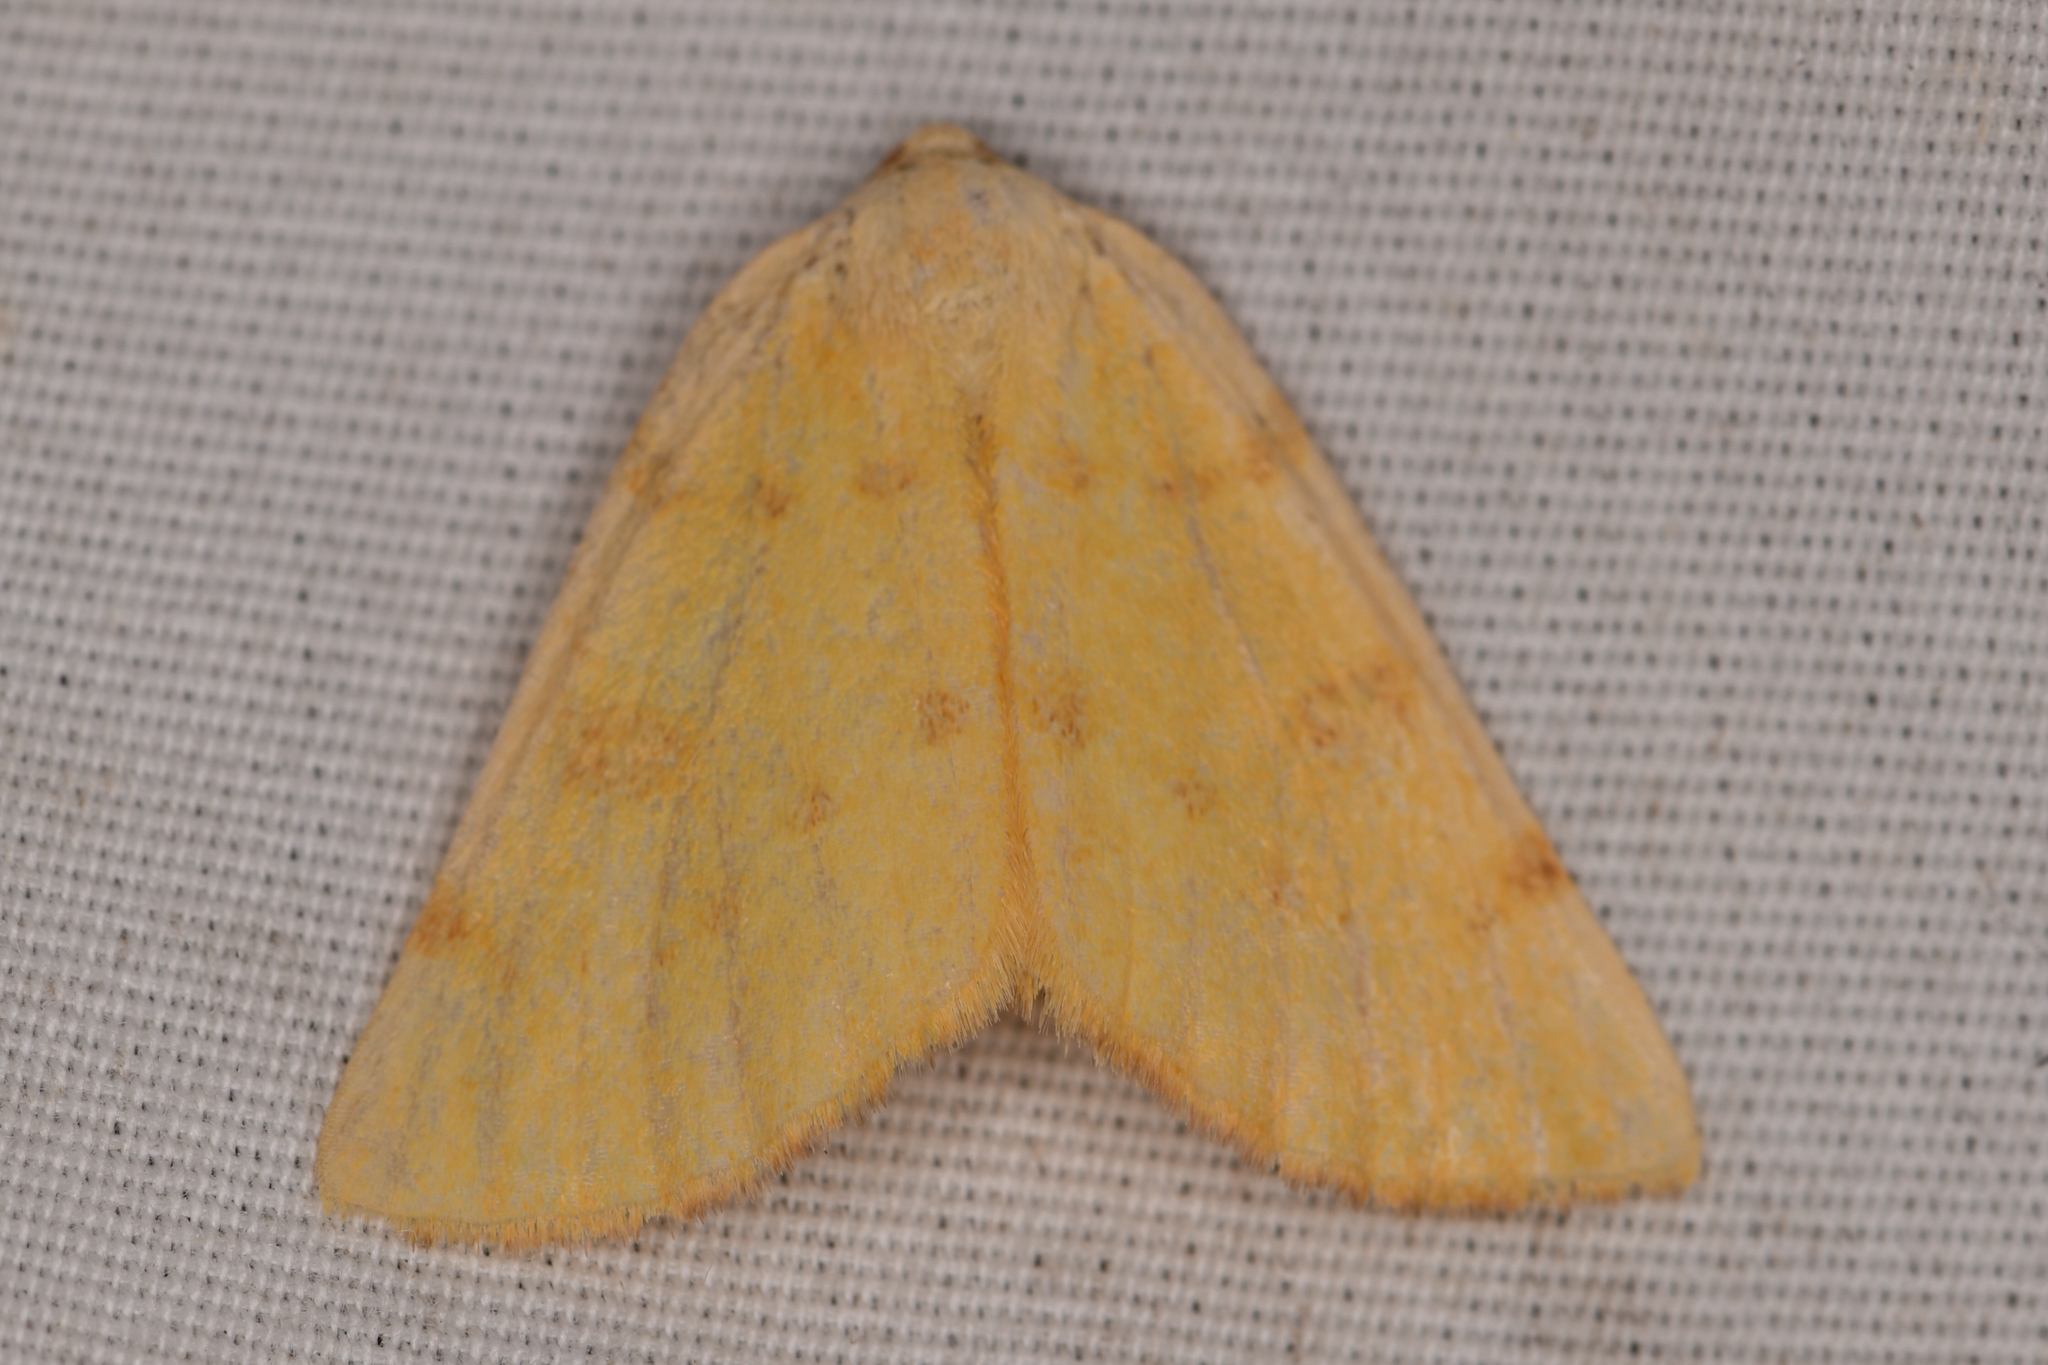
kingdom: Animalia
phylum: Arthropoda
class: Insecta
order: Lepidoptera
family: Geometridae
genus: Hesperumia
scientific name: Hesperumia sulphuraria
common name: Sulphur moth
